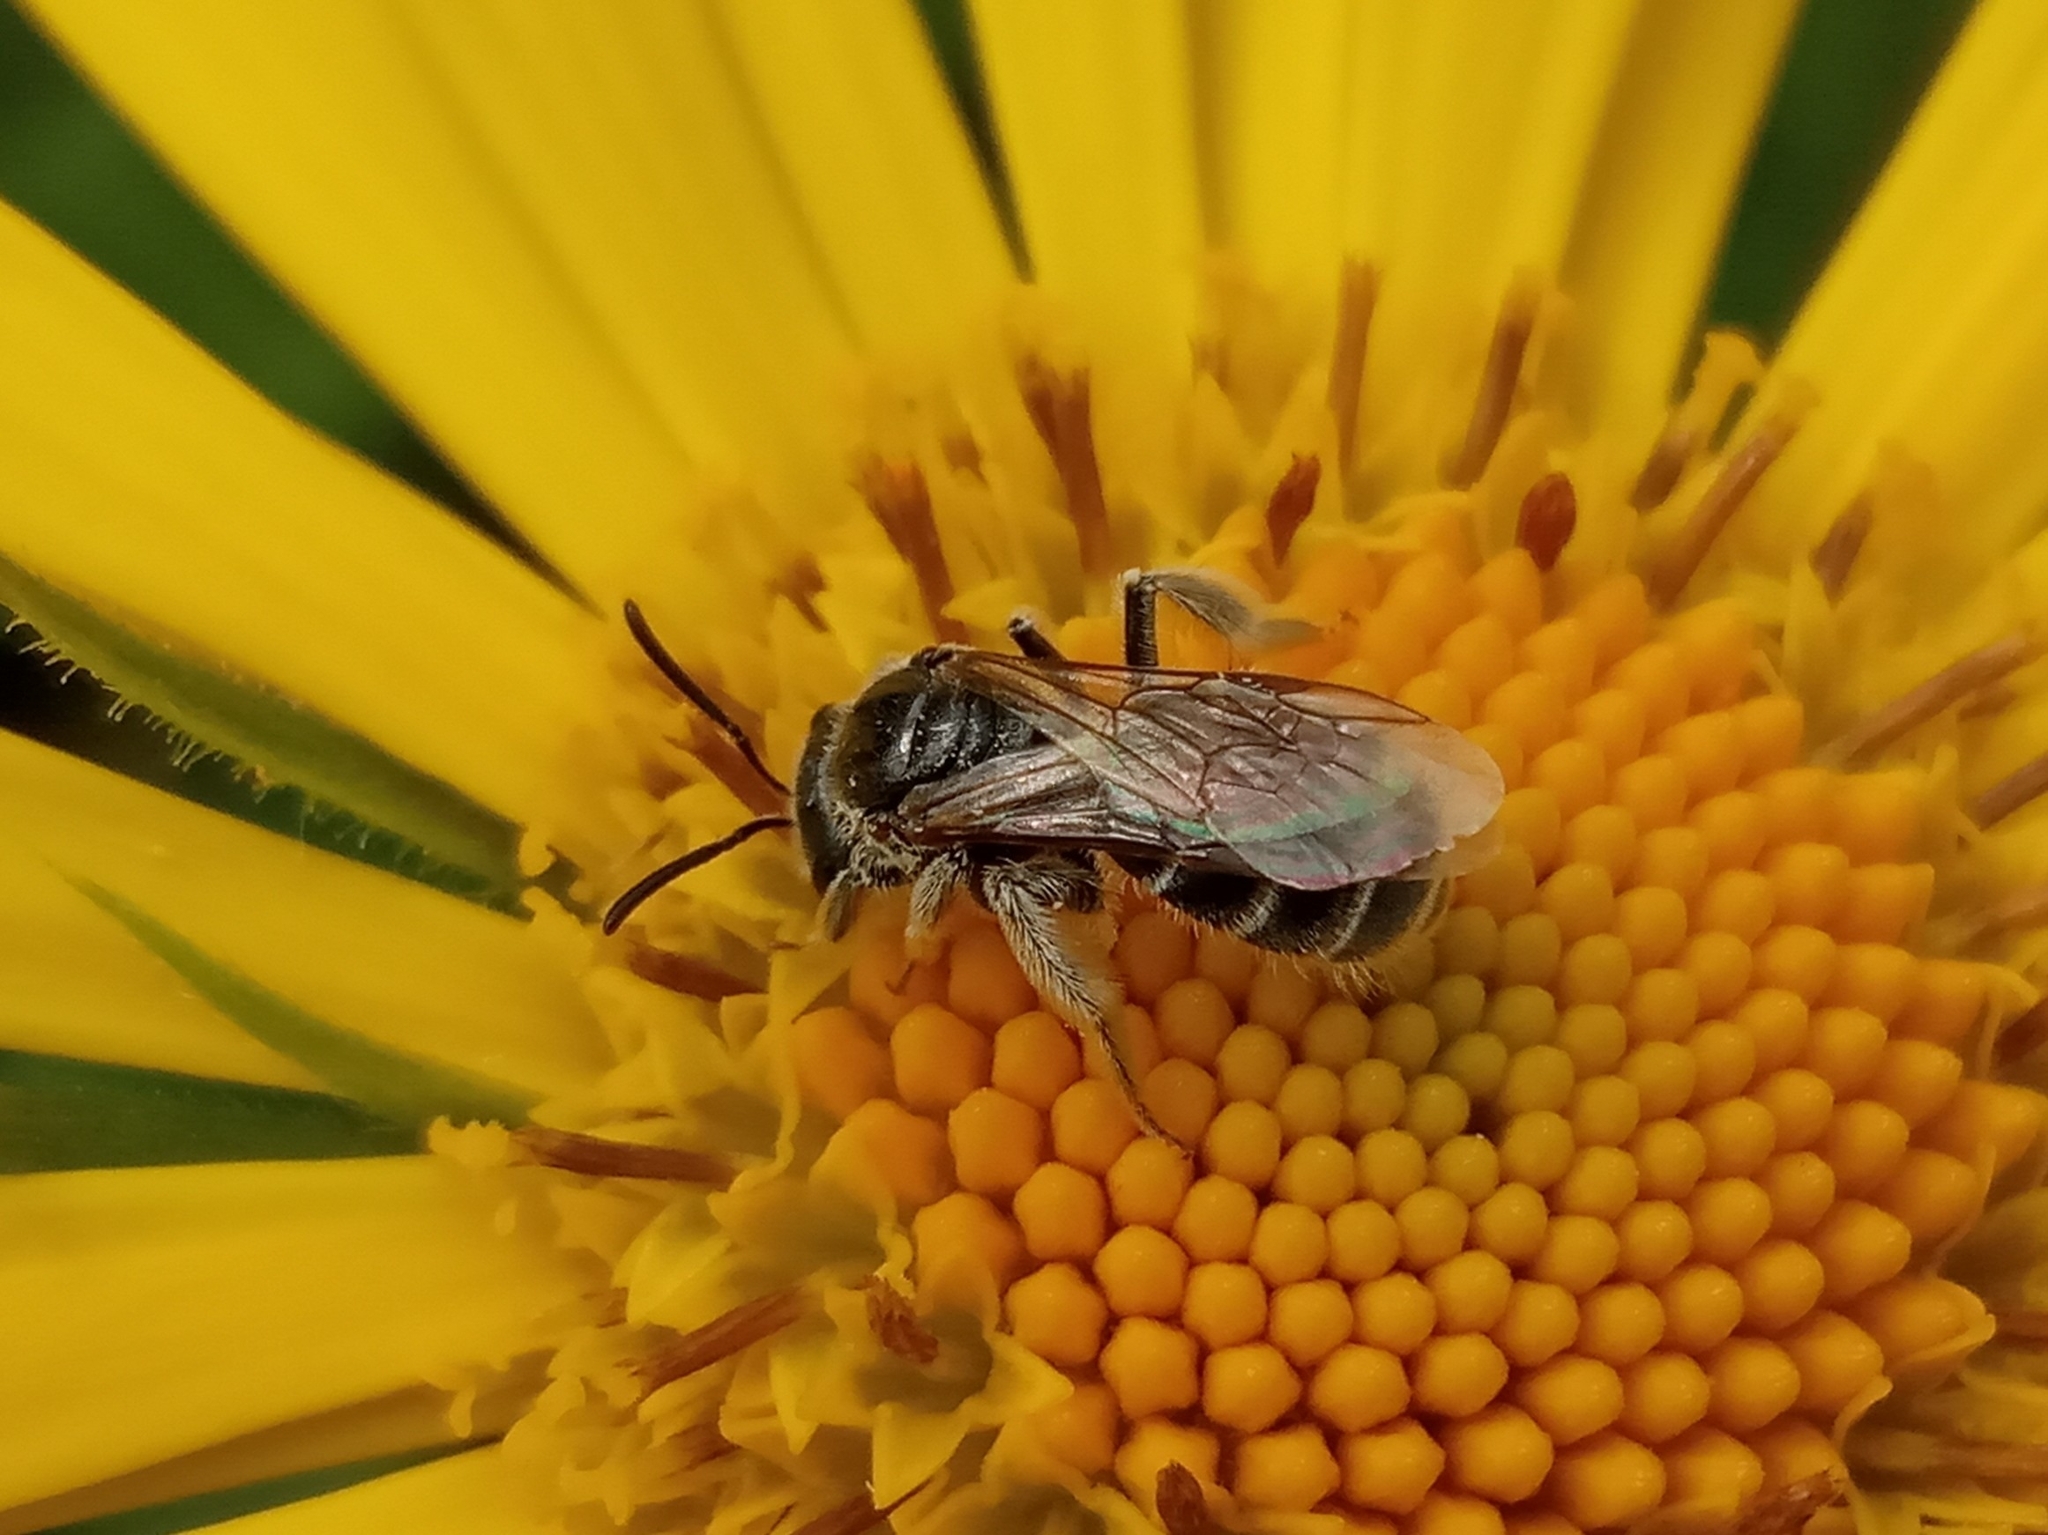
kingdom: Animalia
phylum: Arthropoda
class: Insecta
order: Hymenoptera
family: Halictidae
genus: Lasioglossum
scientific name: Lasioglossum
